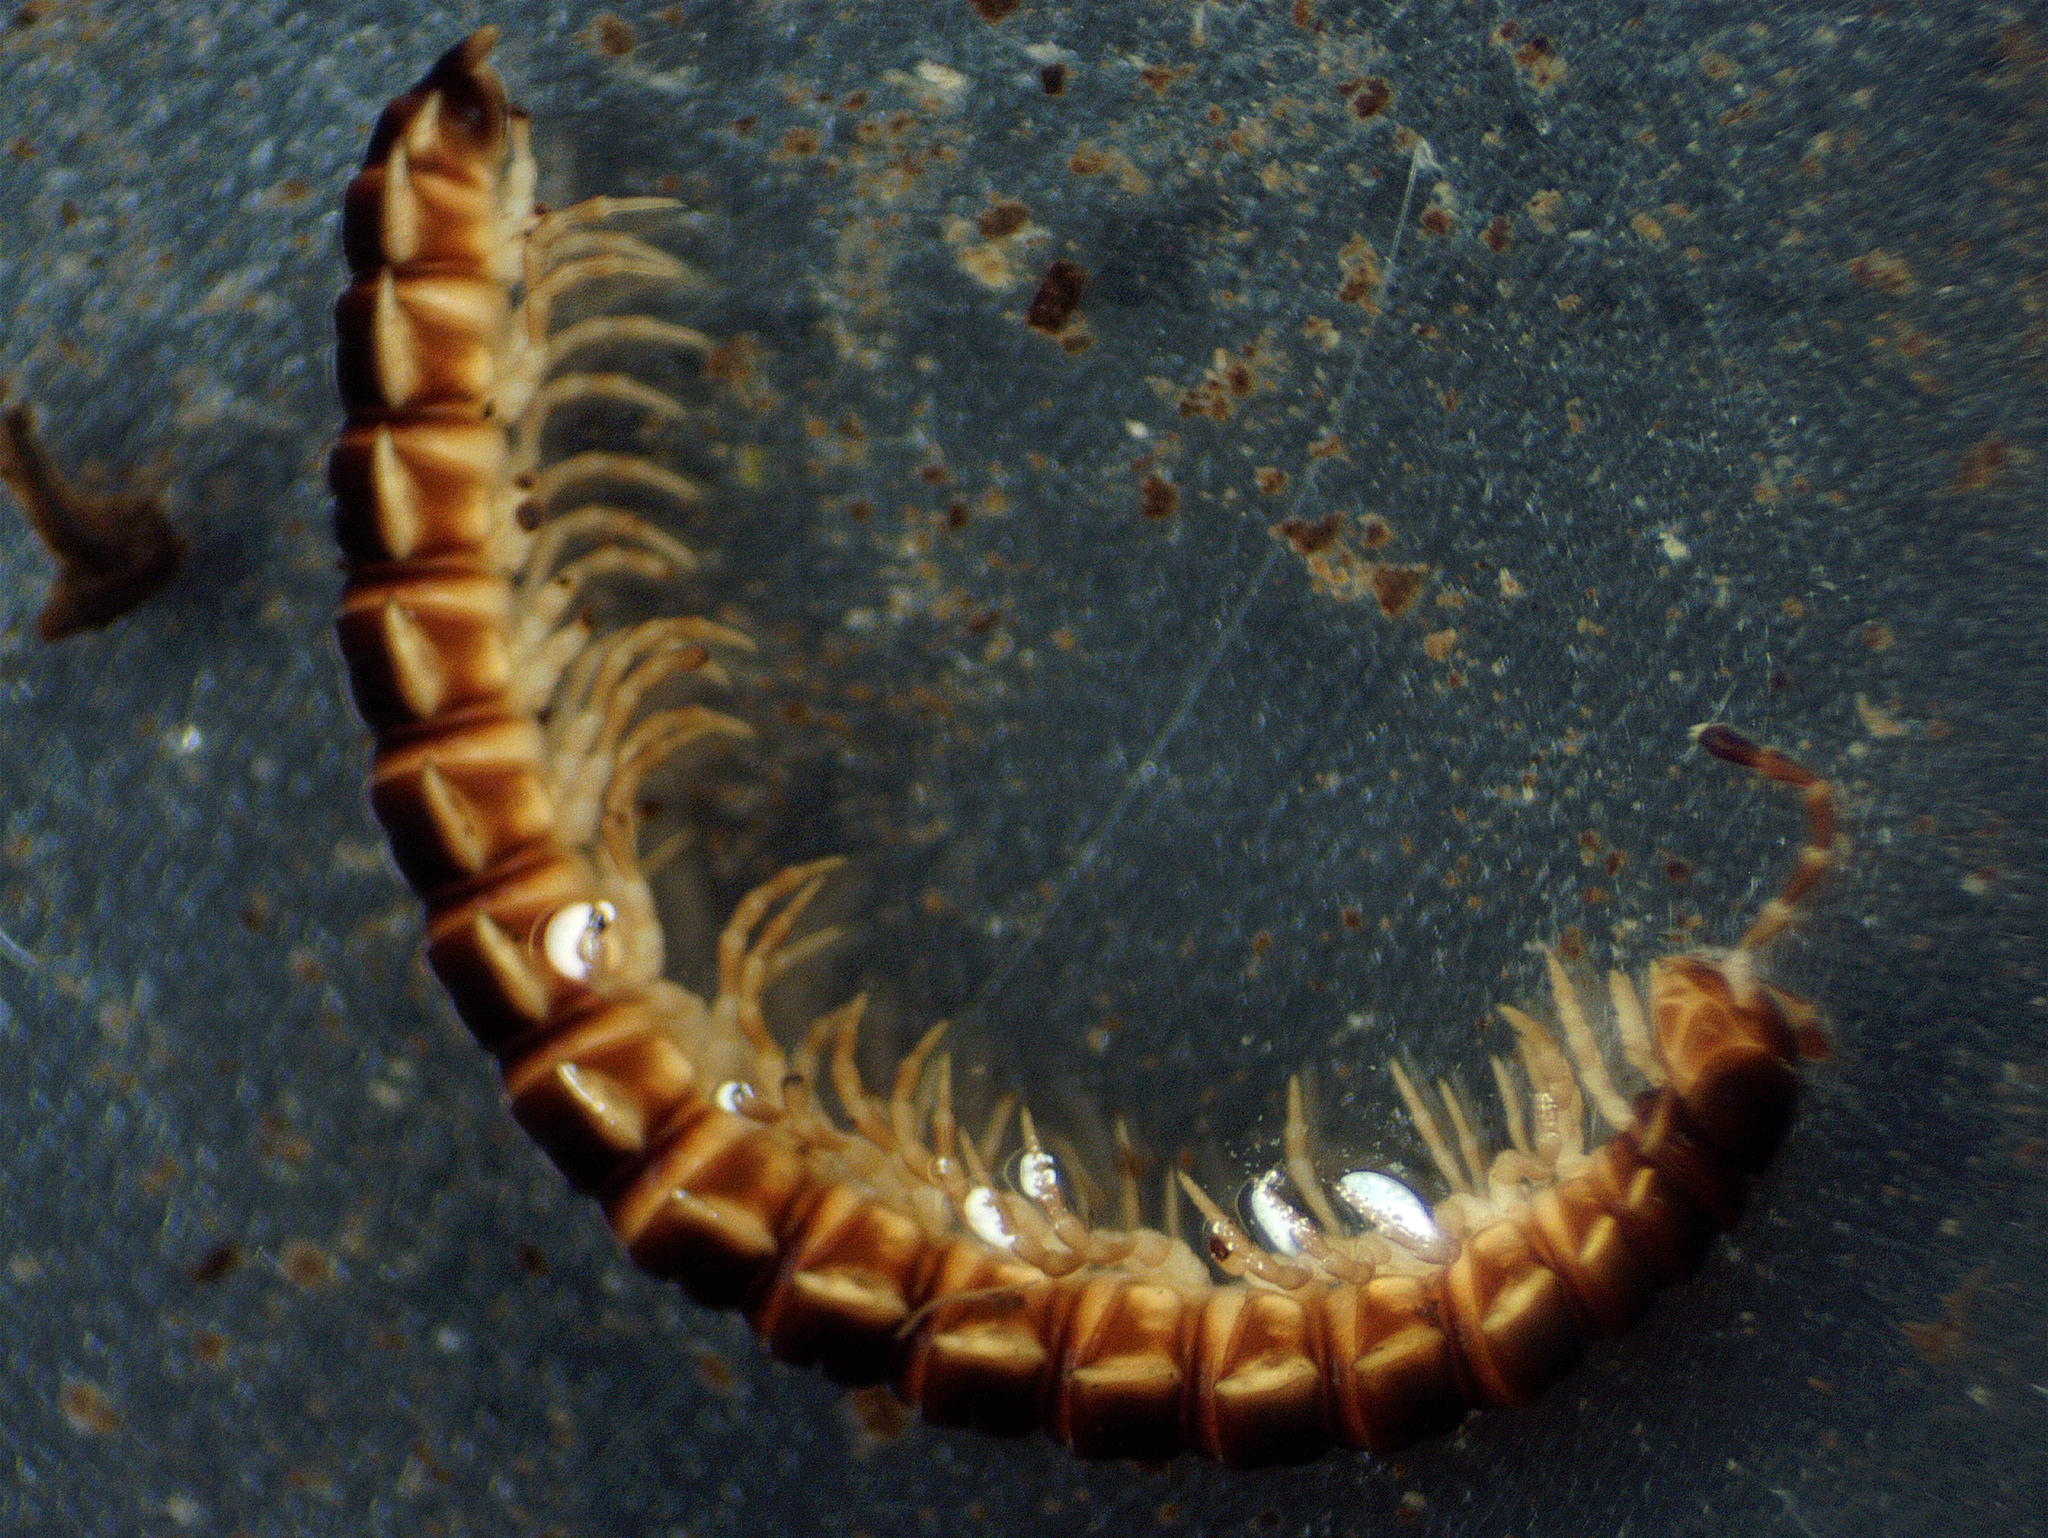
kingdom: Animalia
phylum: Arthropoda
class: Diplopoda
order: Polydesmida
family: Paradoxosomatidae
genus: Oxidus
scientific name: Oxidus gracilis
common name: Greenhouse millipede
